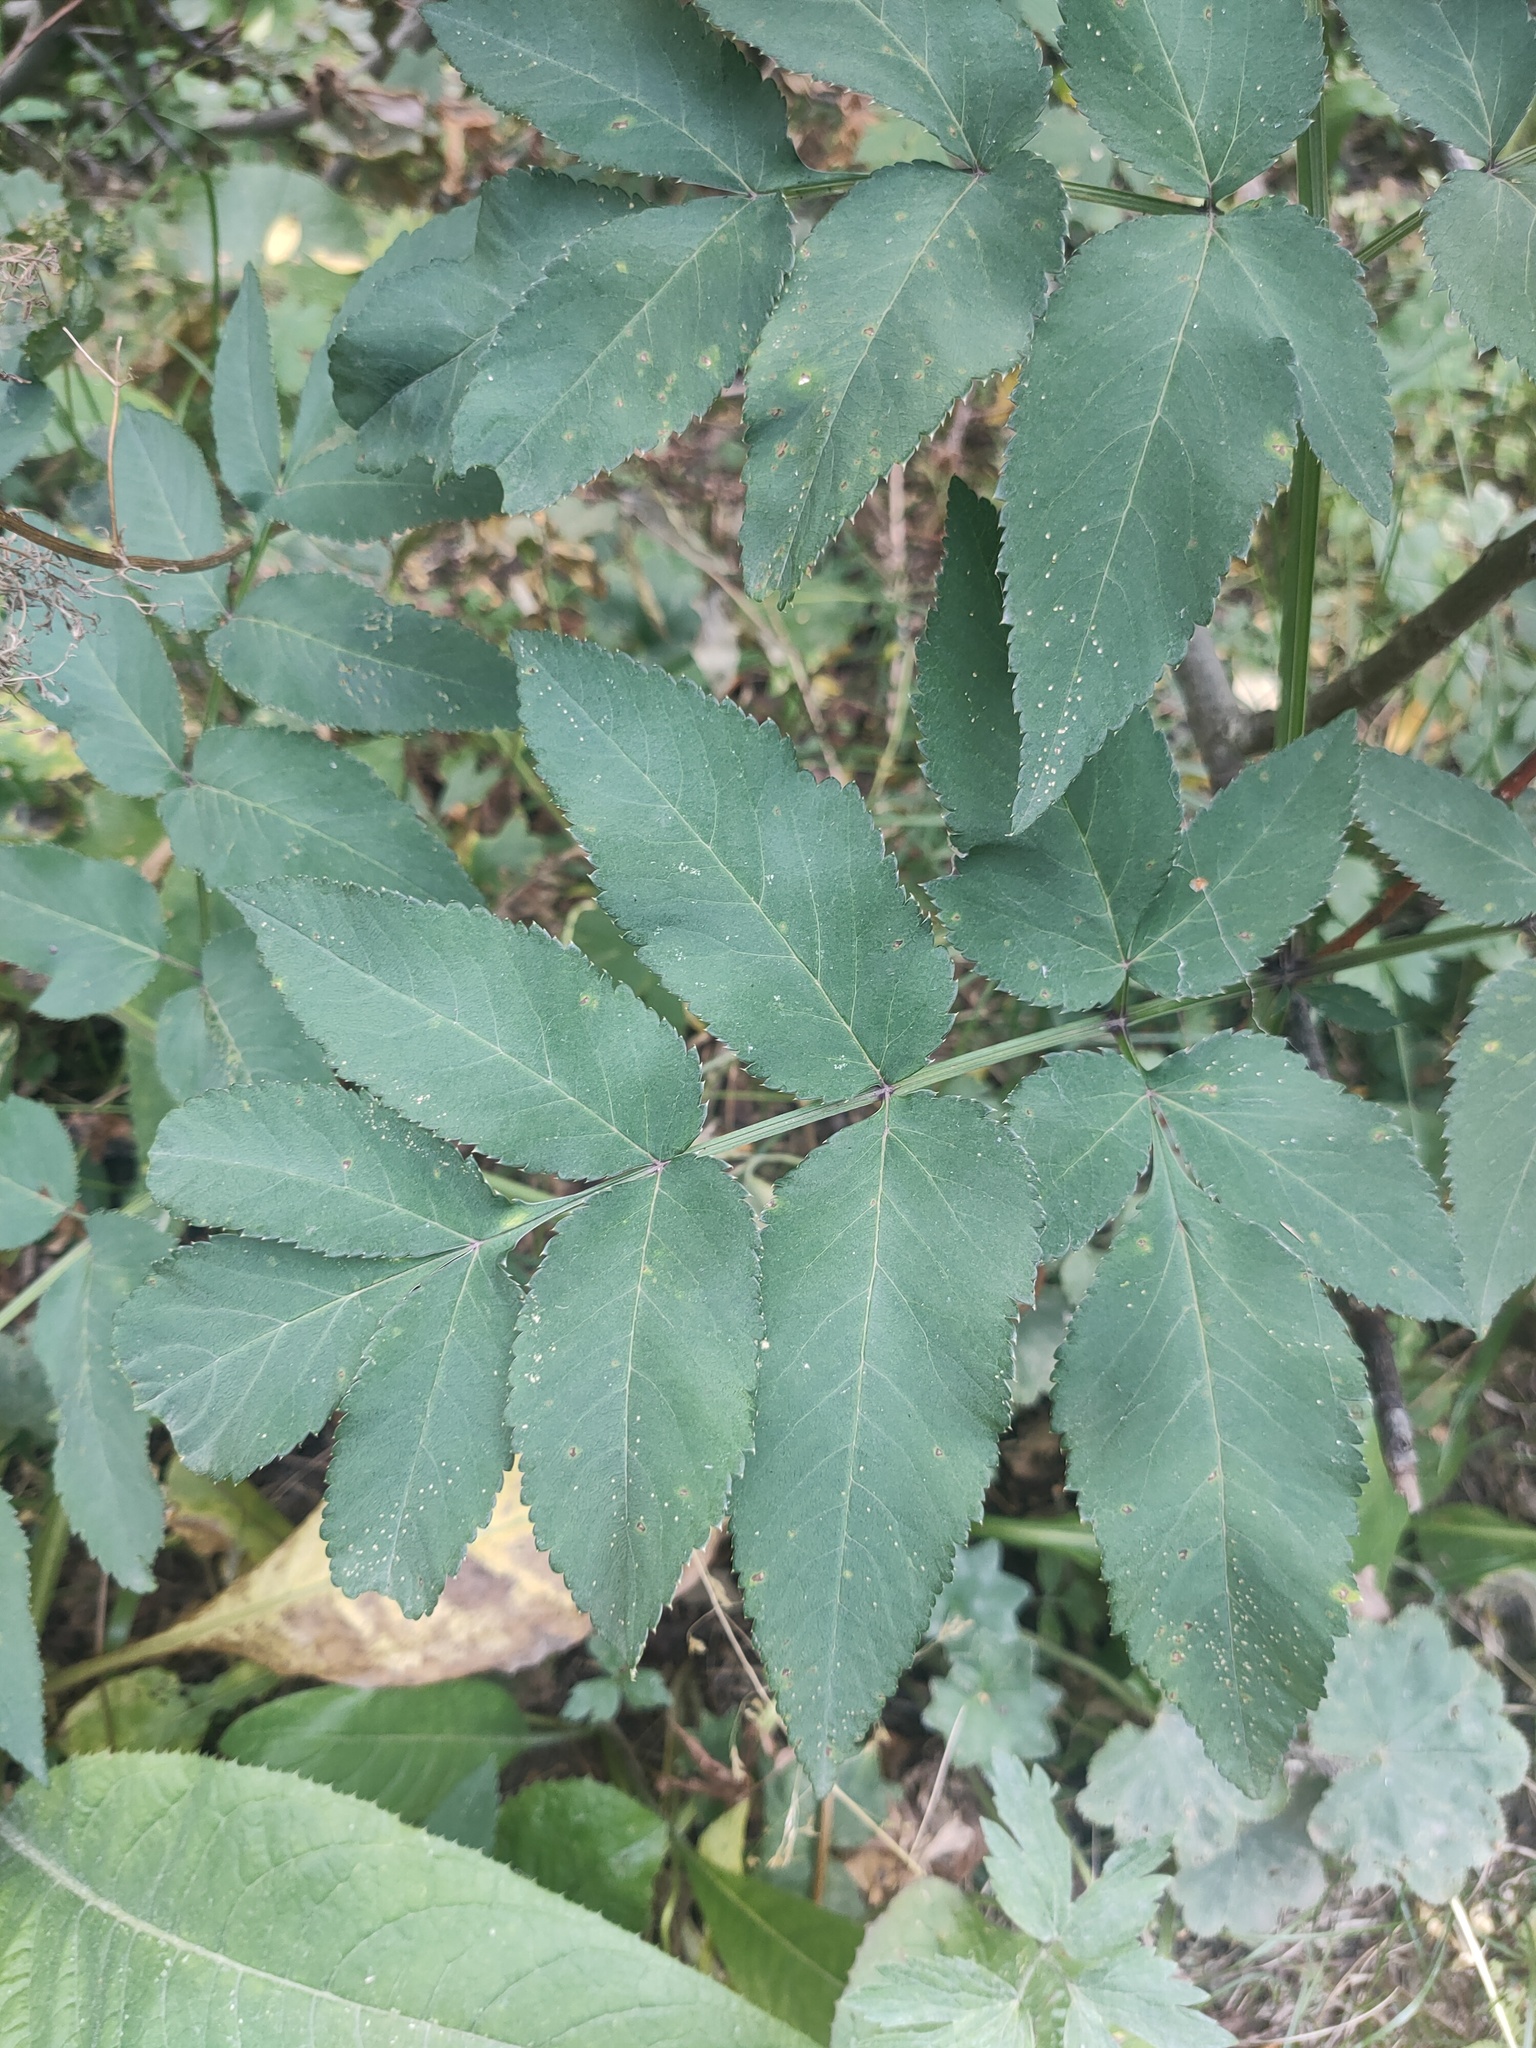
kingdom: Plantae
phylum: Tracheophyta
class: Magnoliopsida
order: Apiales
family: Apiaceae
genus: Angelica
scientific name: Angelica sylvestris
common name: Wild angelica
